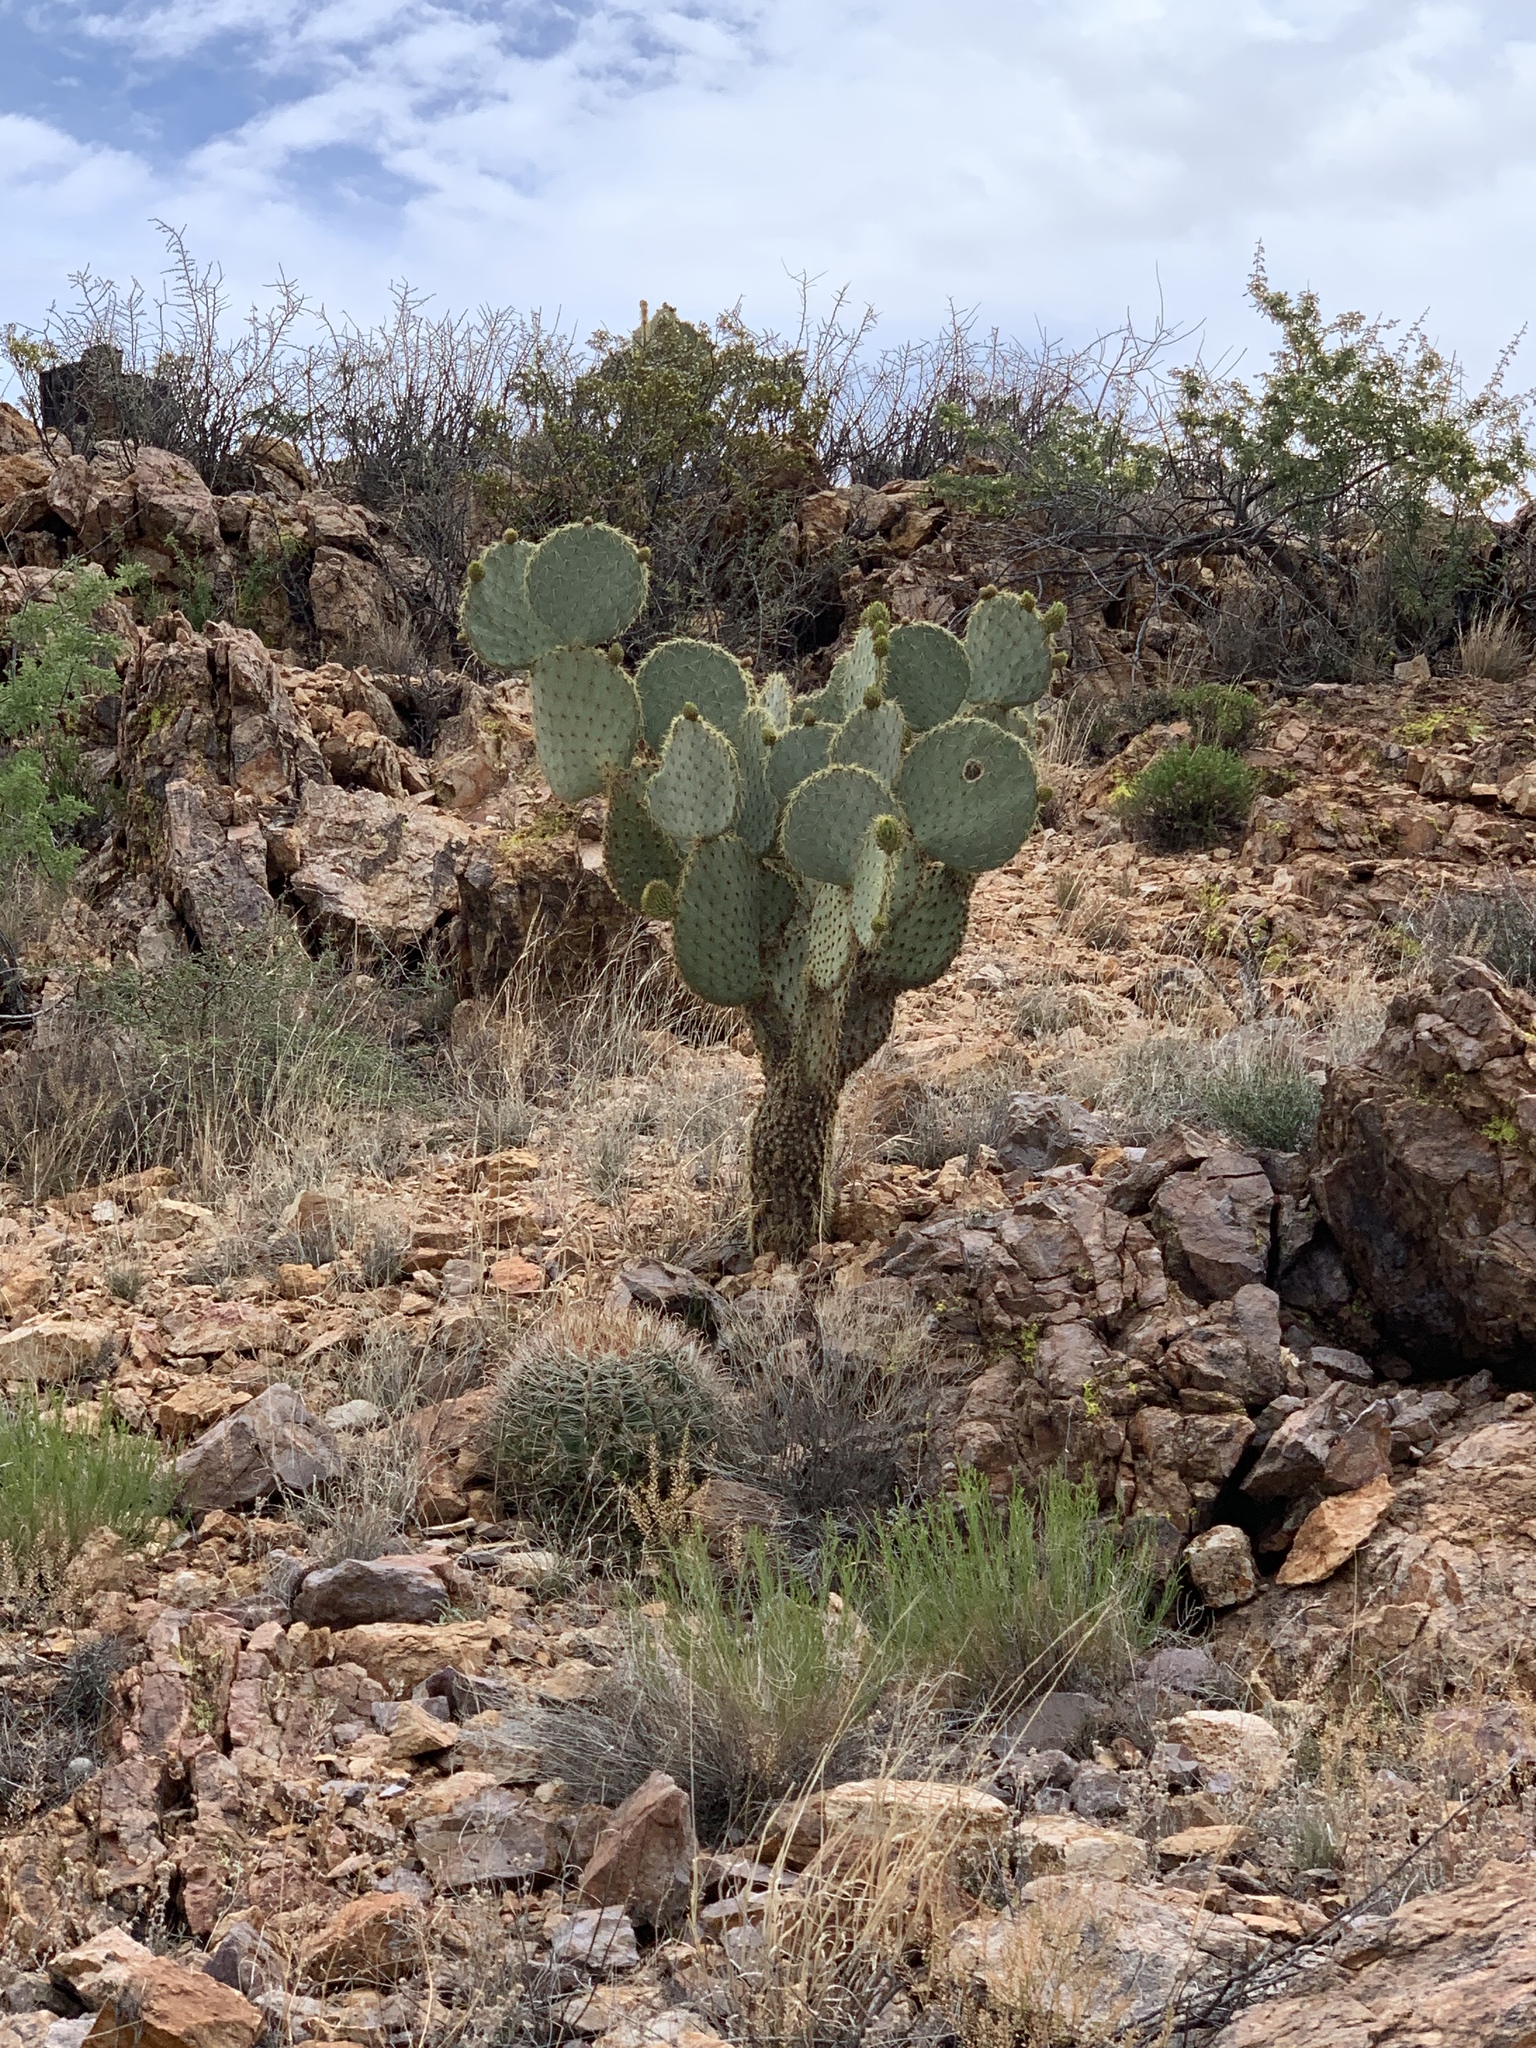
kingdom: Plantae
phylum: Tracheophyta
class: Magnoliopsida
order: Caryophyllales
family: Cactaceae
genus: Opuntia
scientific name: Opuntia chlorotica
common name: Dollar-joint prickly-pear
